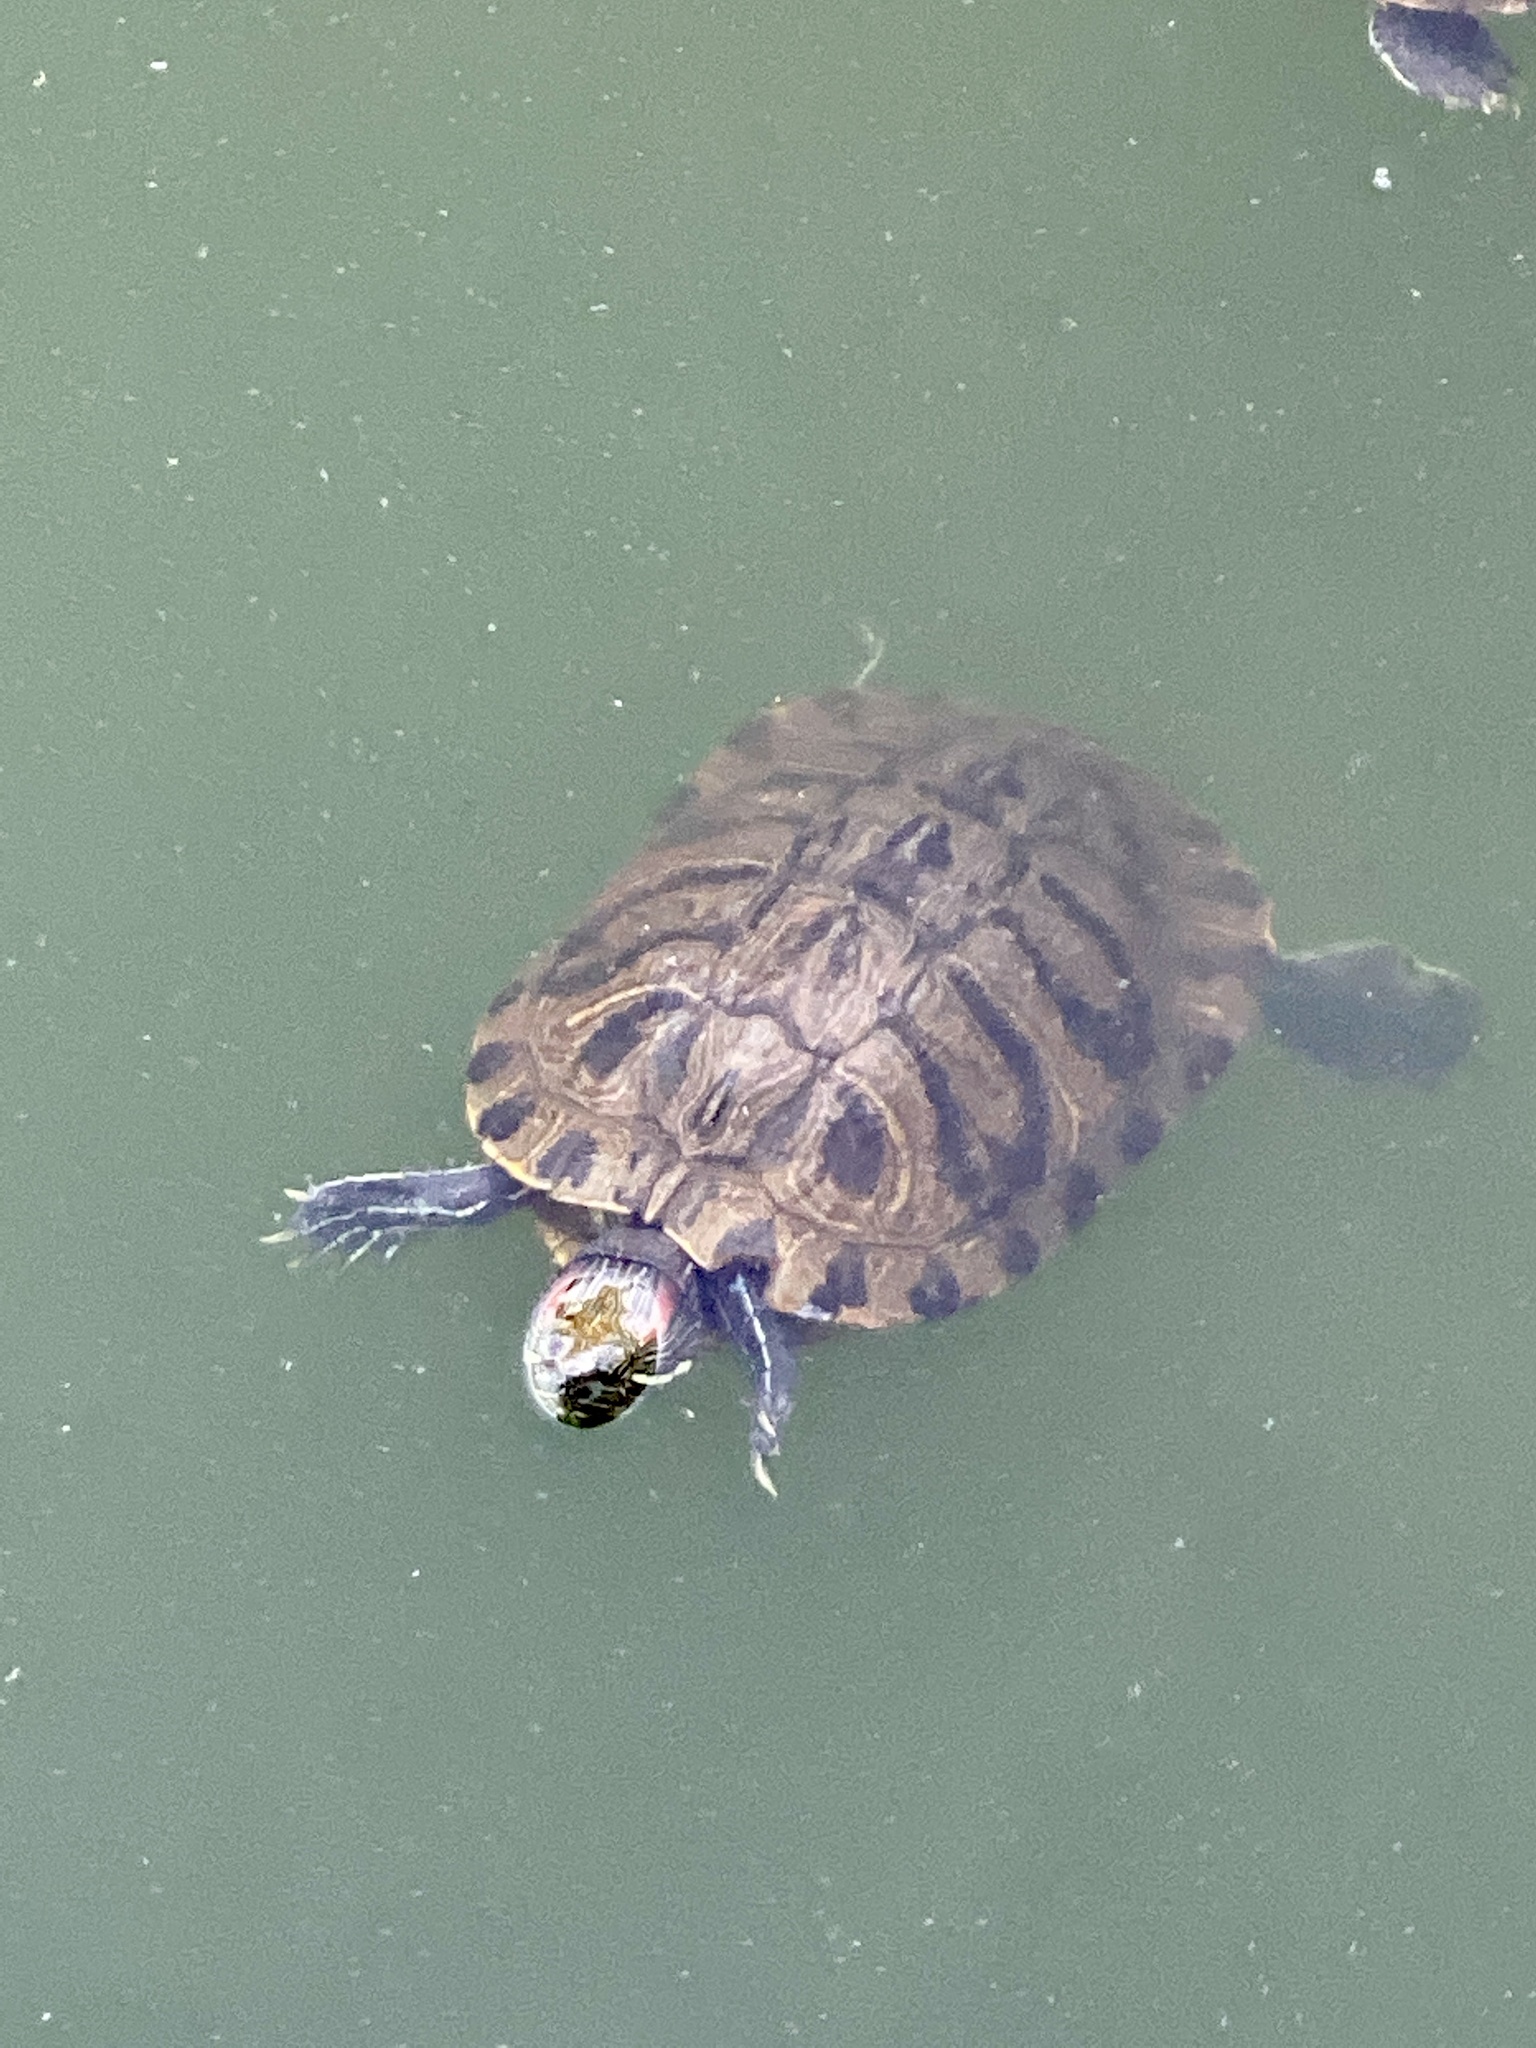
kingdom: Animalia
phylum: Chordata
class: Testudines
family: Emydidae
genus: Trachemys
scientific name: Trachemys scripta
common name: Slider
